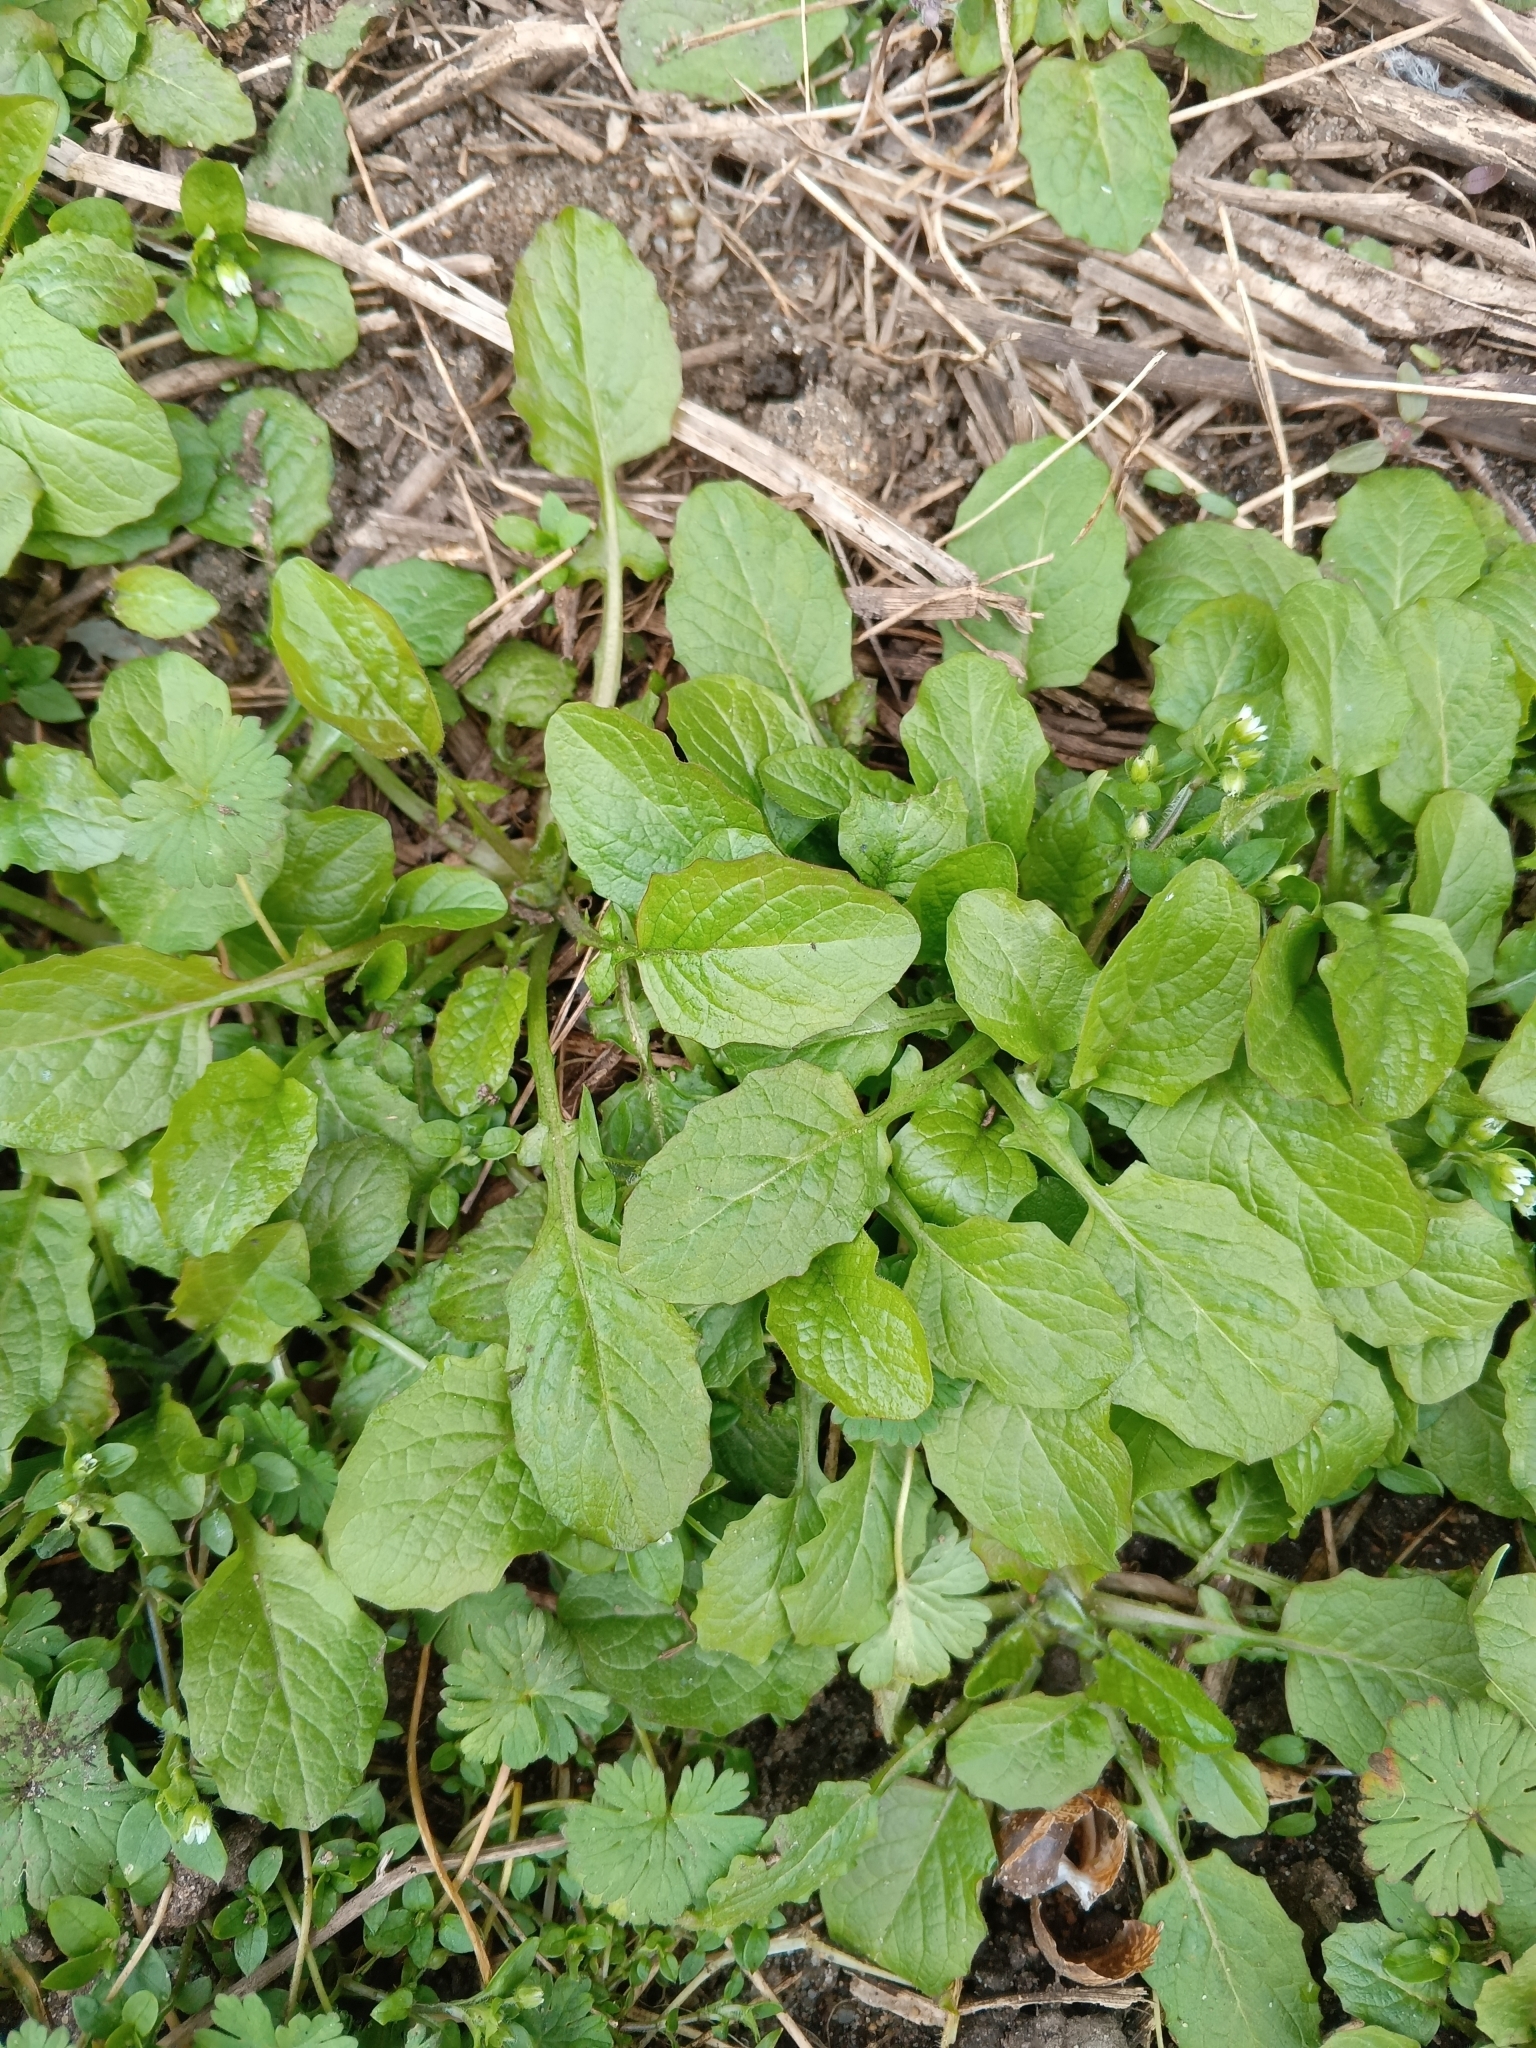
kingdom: Plantae
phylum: Tracheophyta
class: Magnoliopsida
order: Asterales
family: Asteraceae
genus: Lapsana
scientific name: Lapsana communis
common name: Nipplewort
